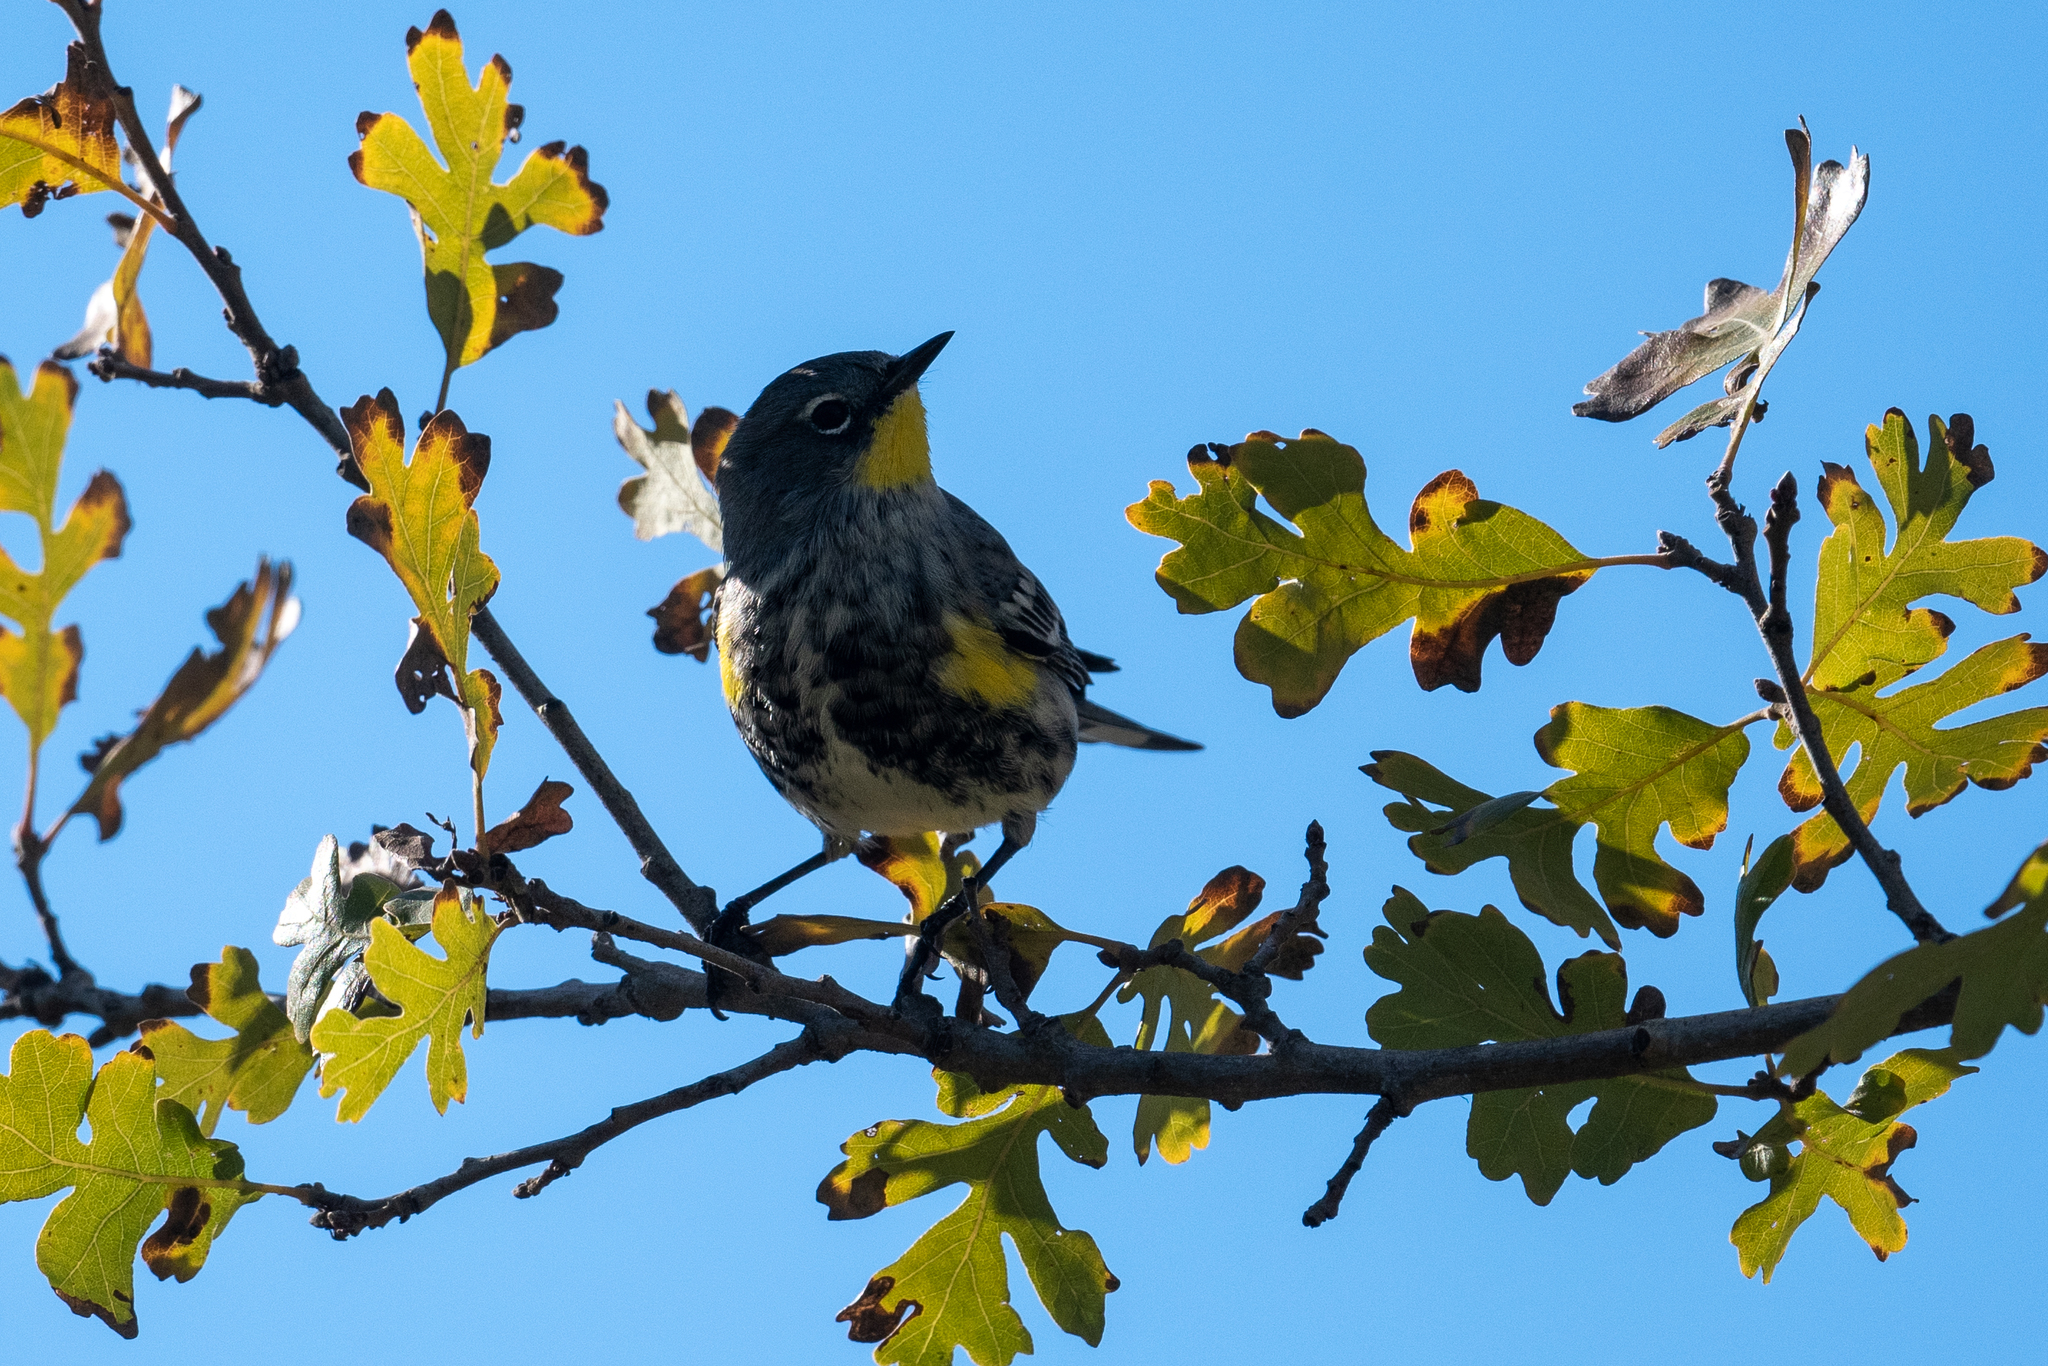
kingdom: Animalia
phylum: Chordata
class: Aves
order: Passeriformes
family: Parulidae
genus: Setophaga
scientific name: Setophaga coronata
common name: Myrtle warbler
